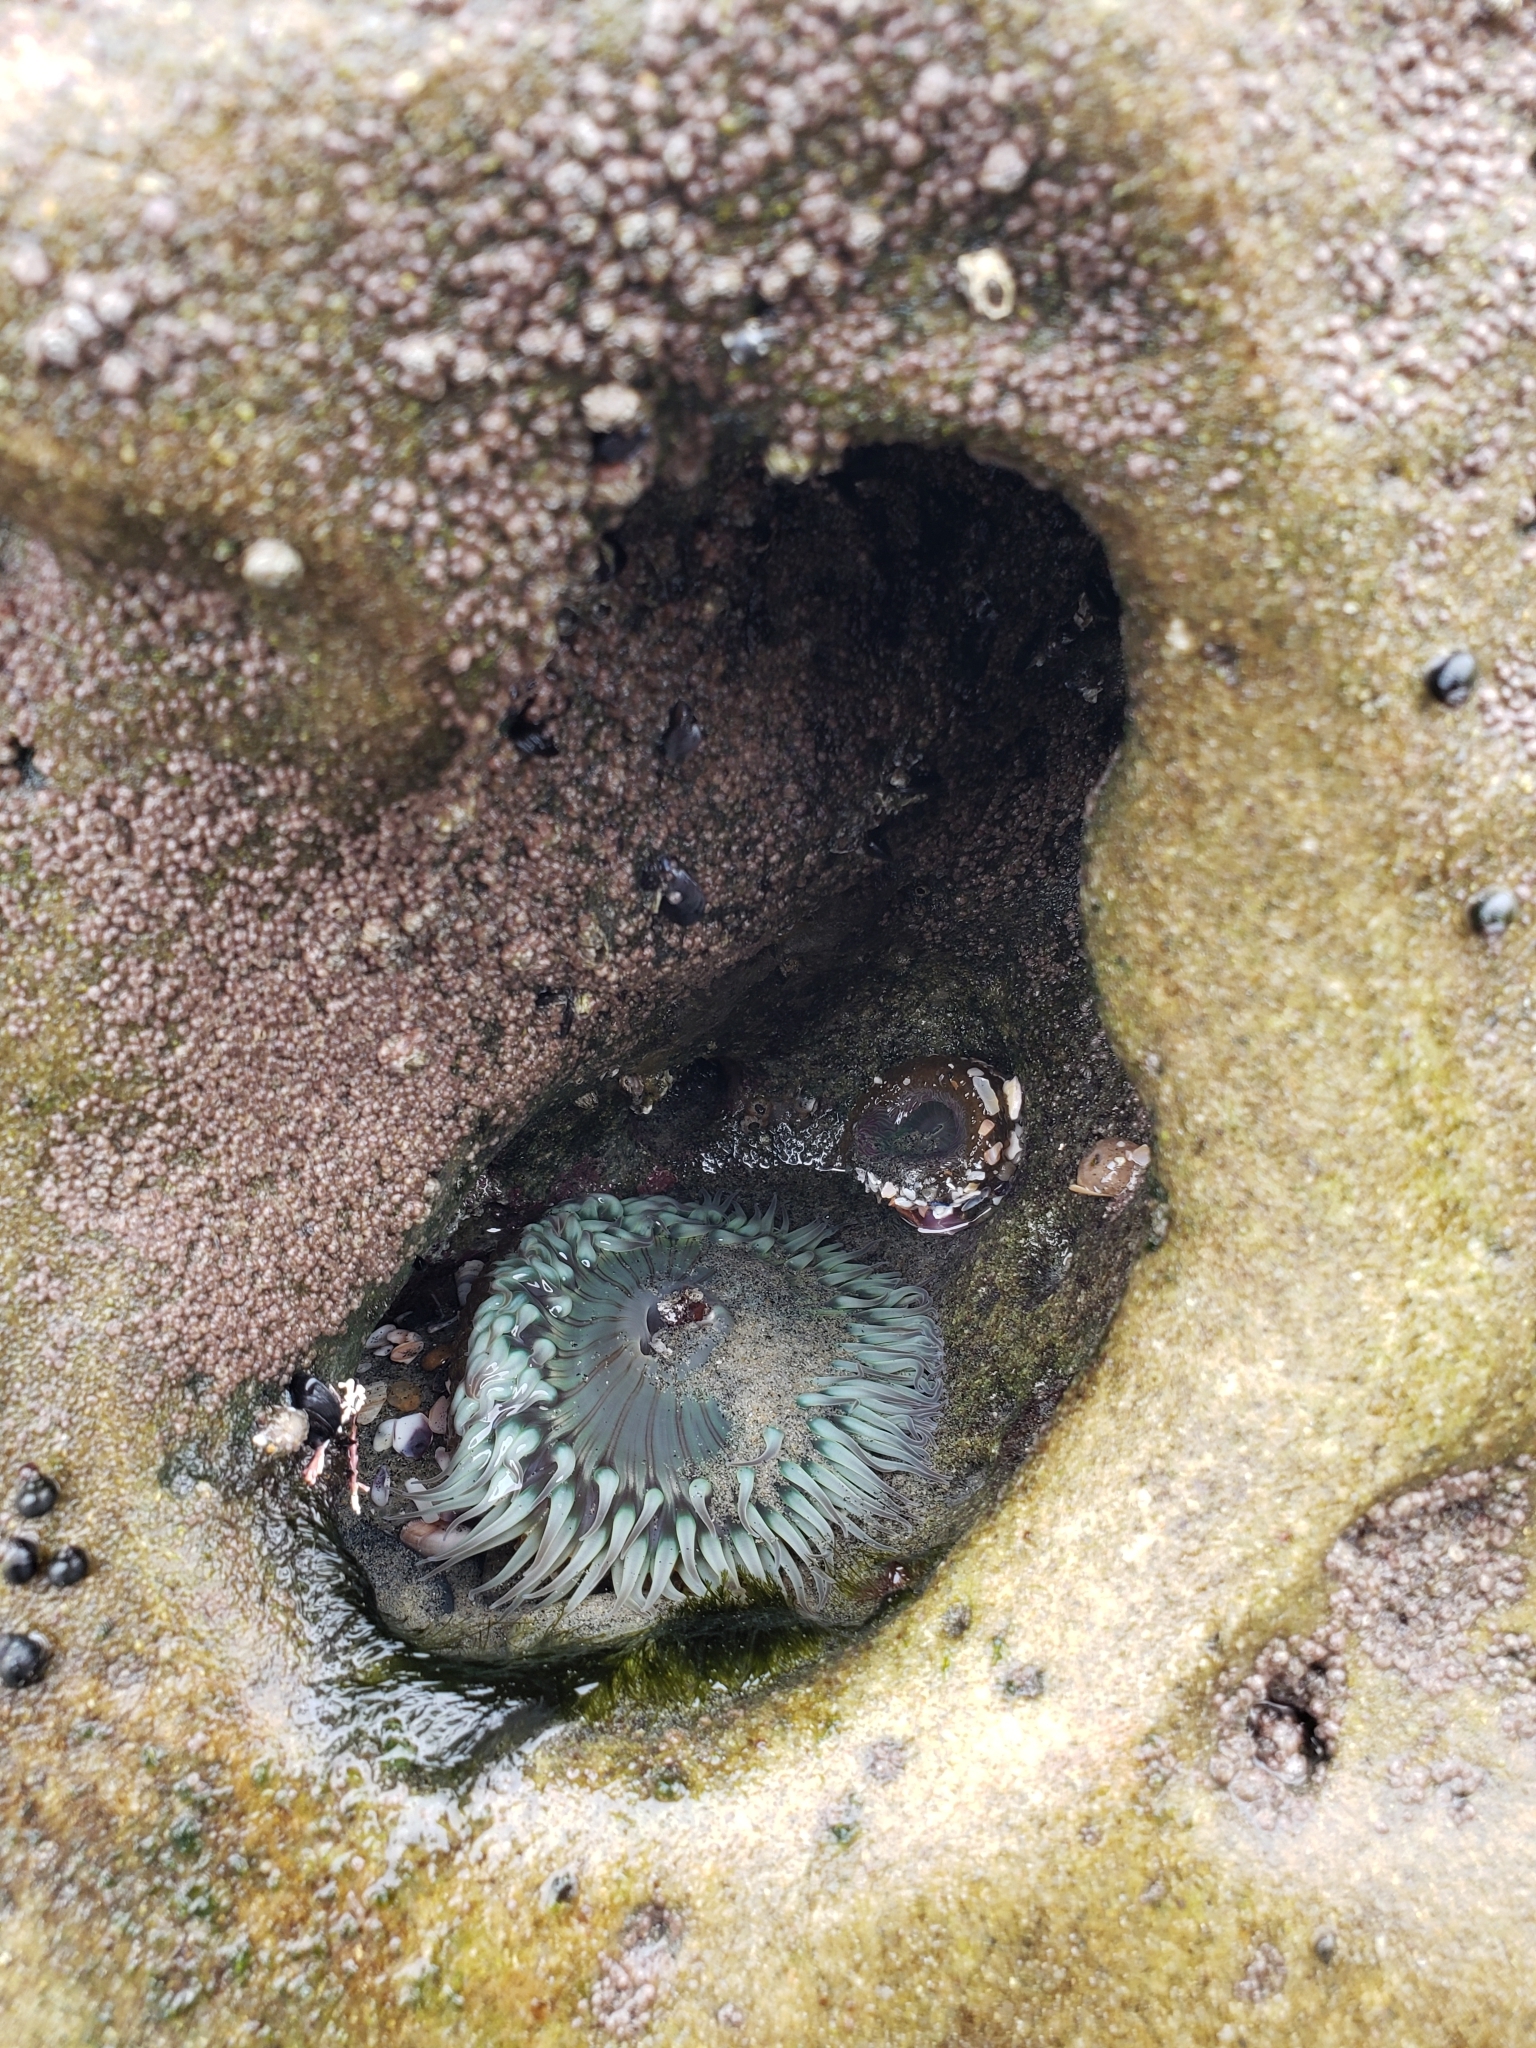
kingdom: Animalia
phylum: Cnidaria
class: Anthozoa
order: Actiniaria
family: Actiniidae
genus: Anthopleura
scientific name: Anthopleura sola
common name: Sun anemone
